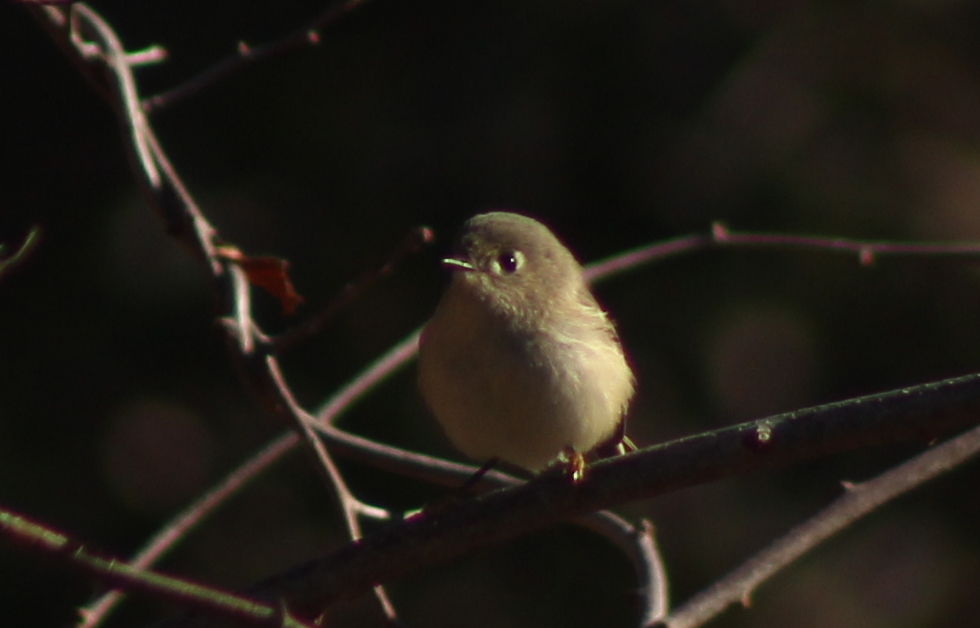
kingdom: Animalia
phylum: Chordata
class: Aves
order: Passeriformes
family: Regulidae
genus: Regulus
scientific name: Regulus calendula
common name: Ruby-crowned kinglet
